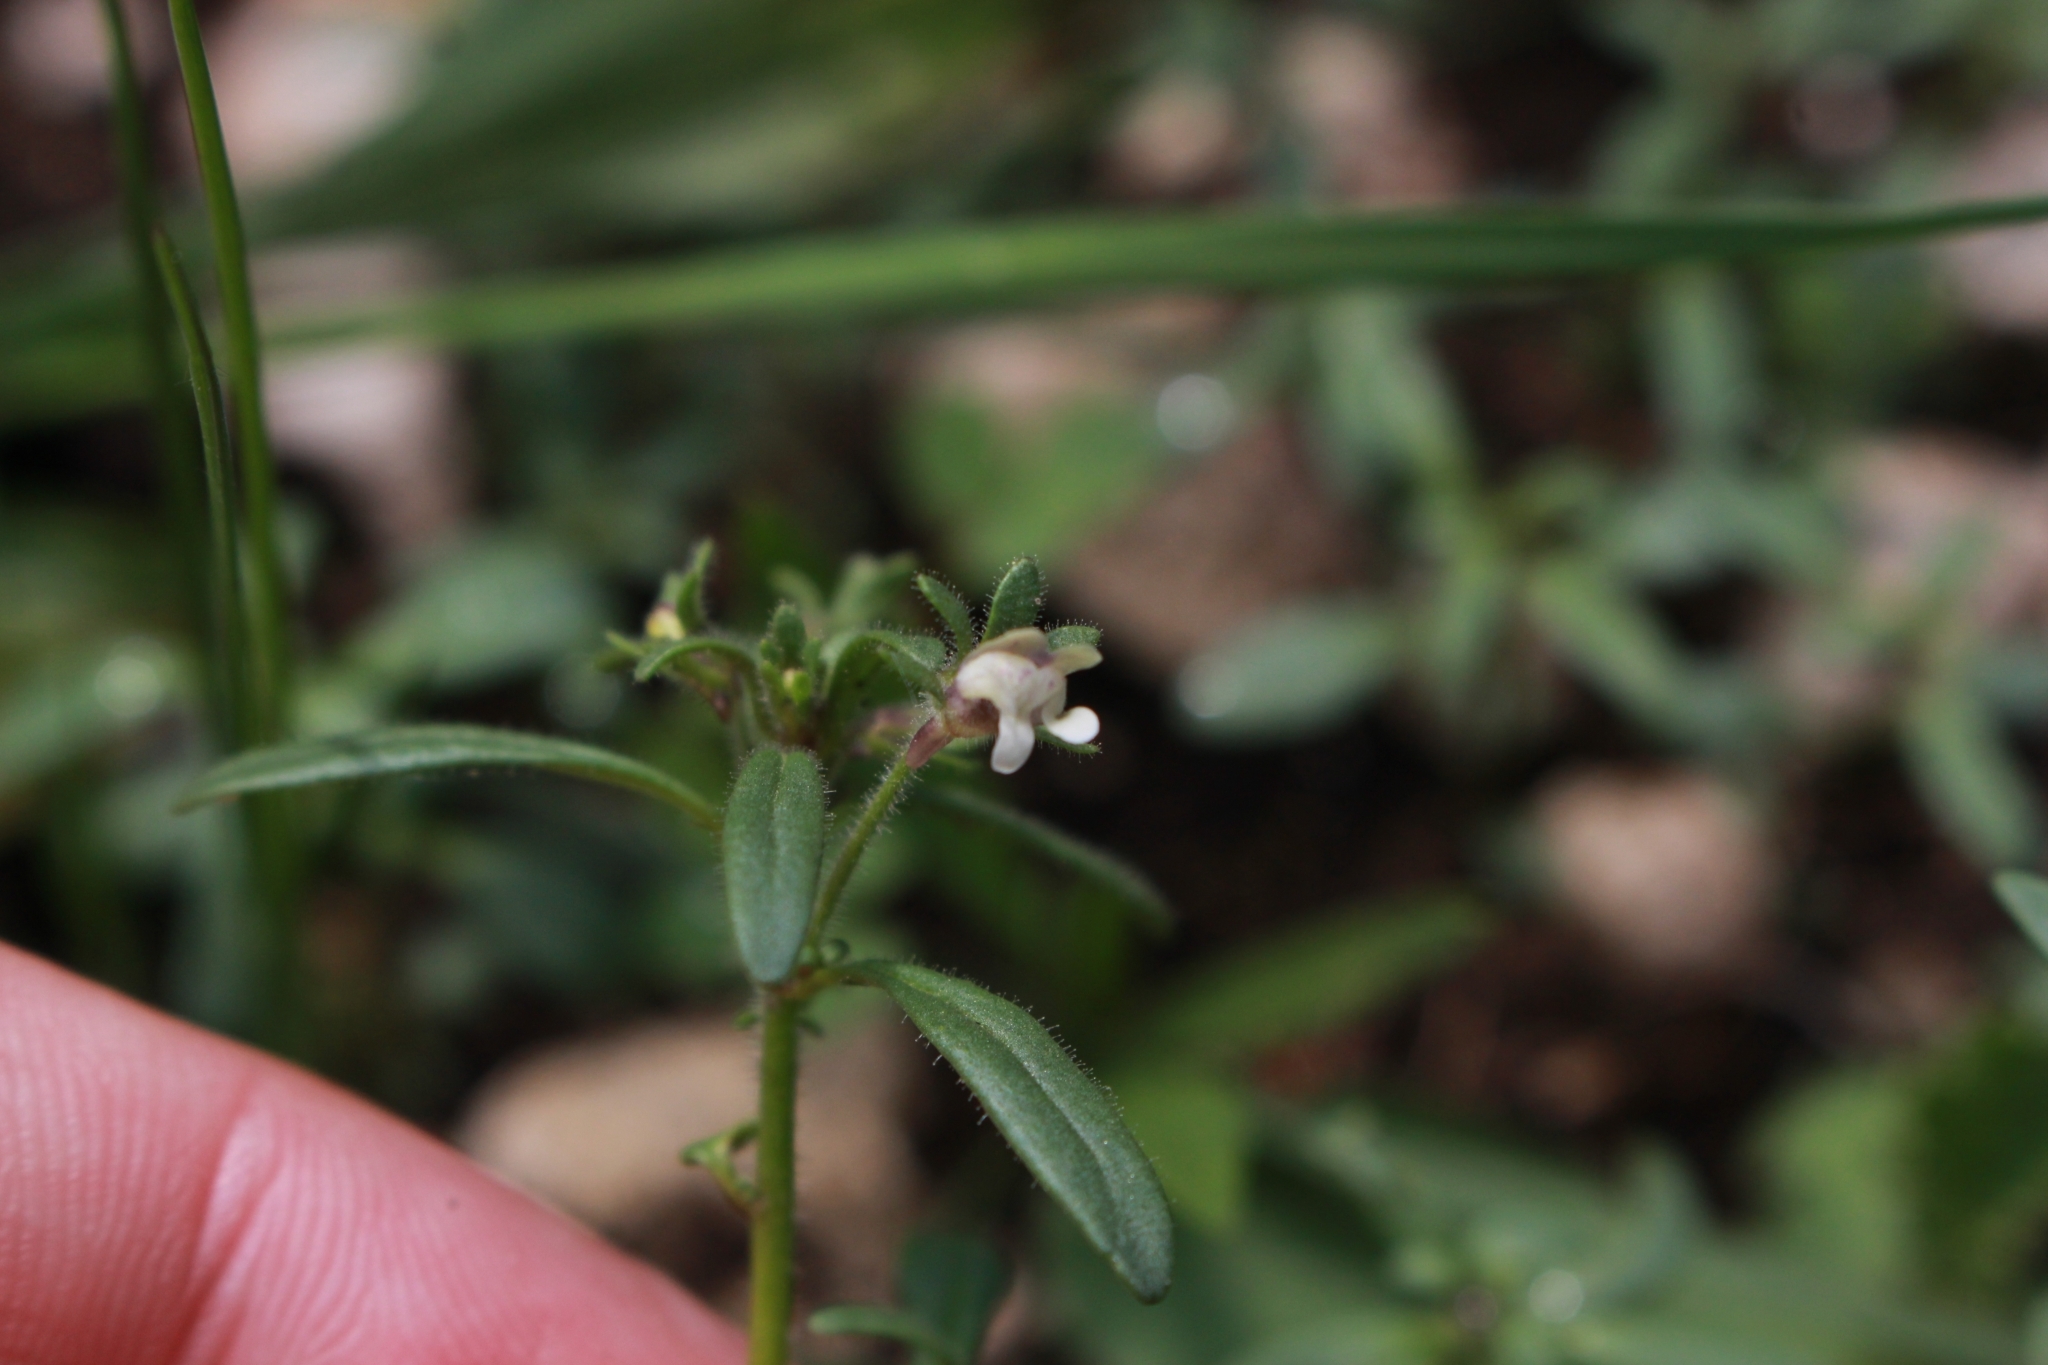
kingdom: Plantae
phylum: Tracheophyta
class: Magnoliopsida
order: Lamiales
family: Plantaginaceae
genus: Chaenorhinum
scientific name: Chaenorhinum minus
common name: Dwarf snapdragon
